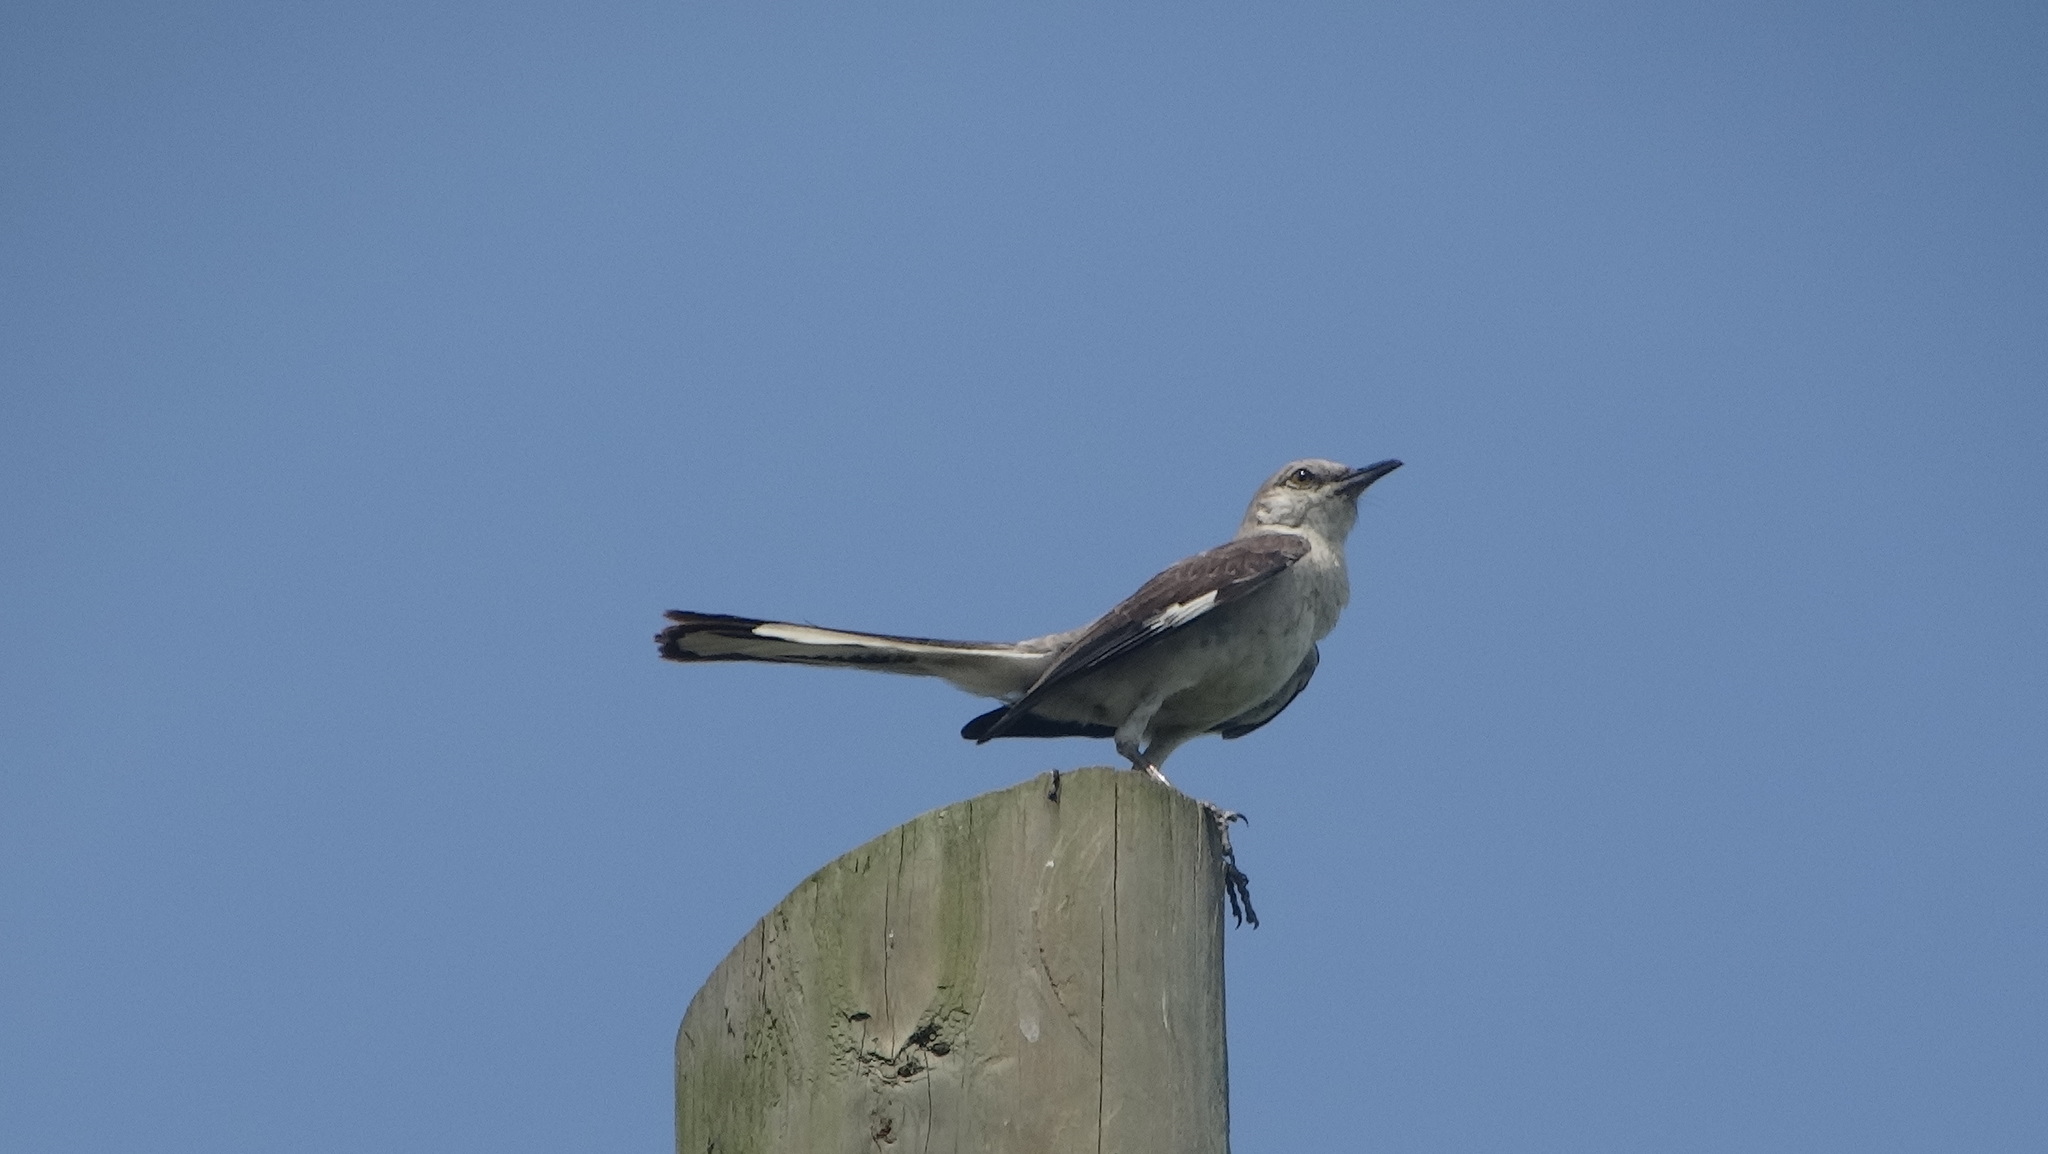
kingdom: Animalia
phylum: Chordata
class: Aves
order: Passeriformes
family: Mimidae
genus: Mimus
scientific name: Mimus polyglottos
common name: Northern mockingbird
